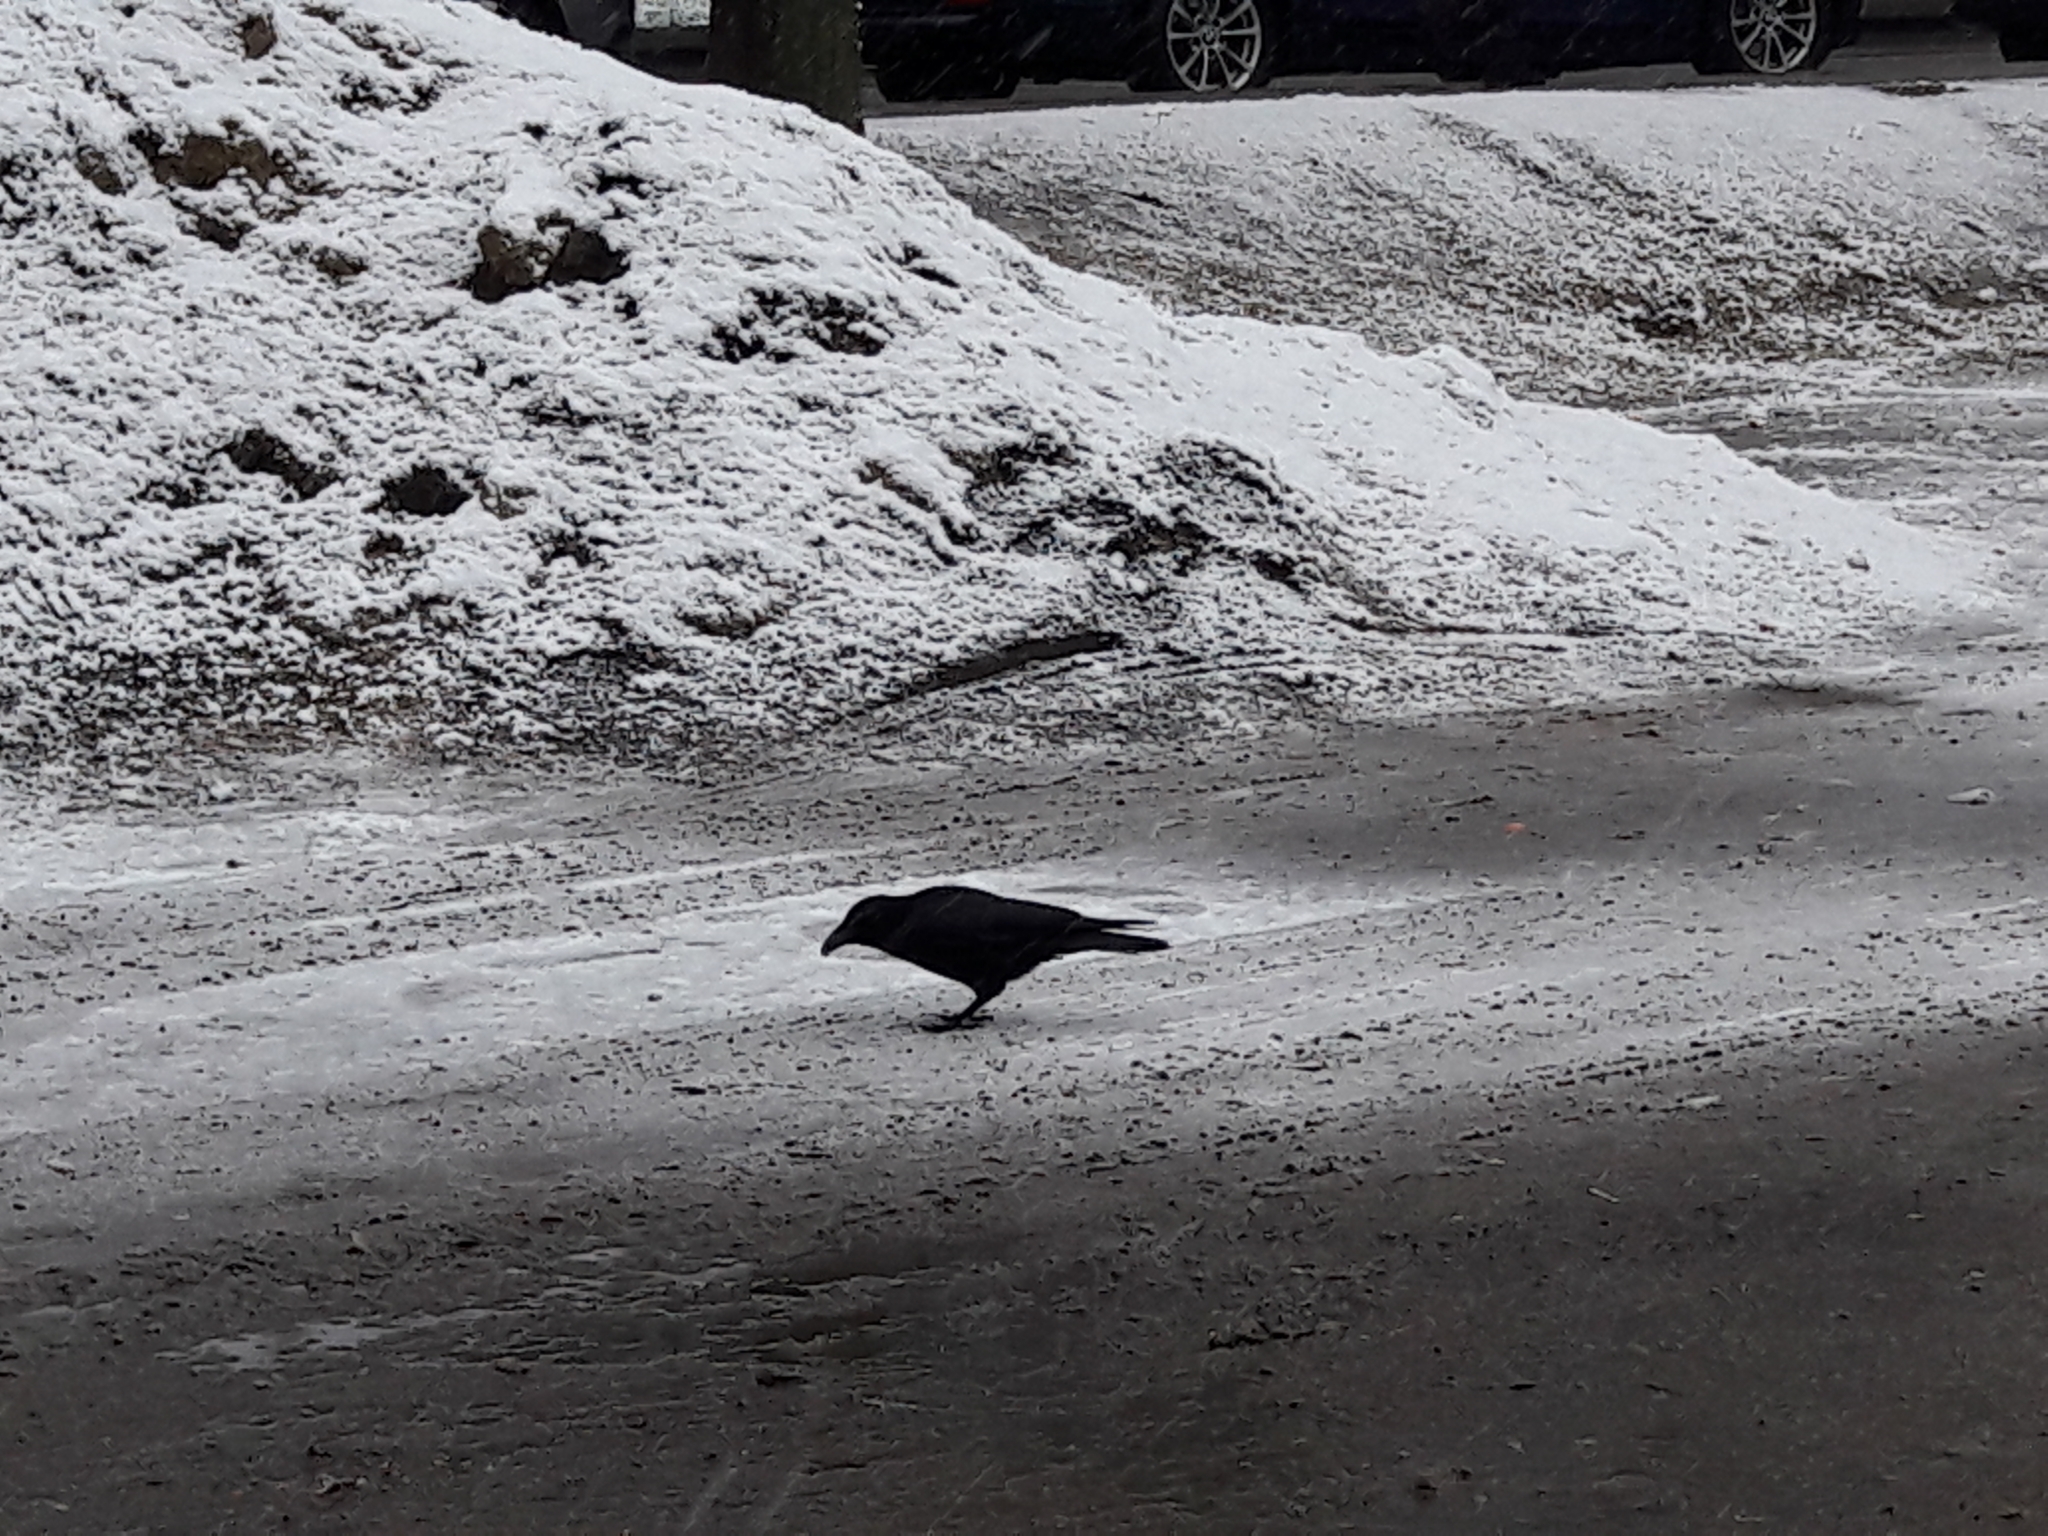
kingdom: Animalia
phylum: Chordata
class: Aves
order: Passeriformes
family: Corvidae
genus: Corvus
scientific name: Corvus corone
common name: Carrion crow
